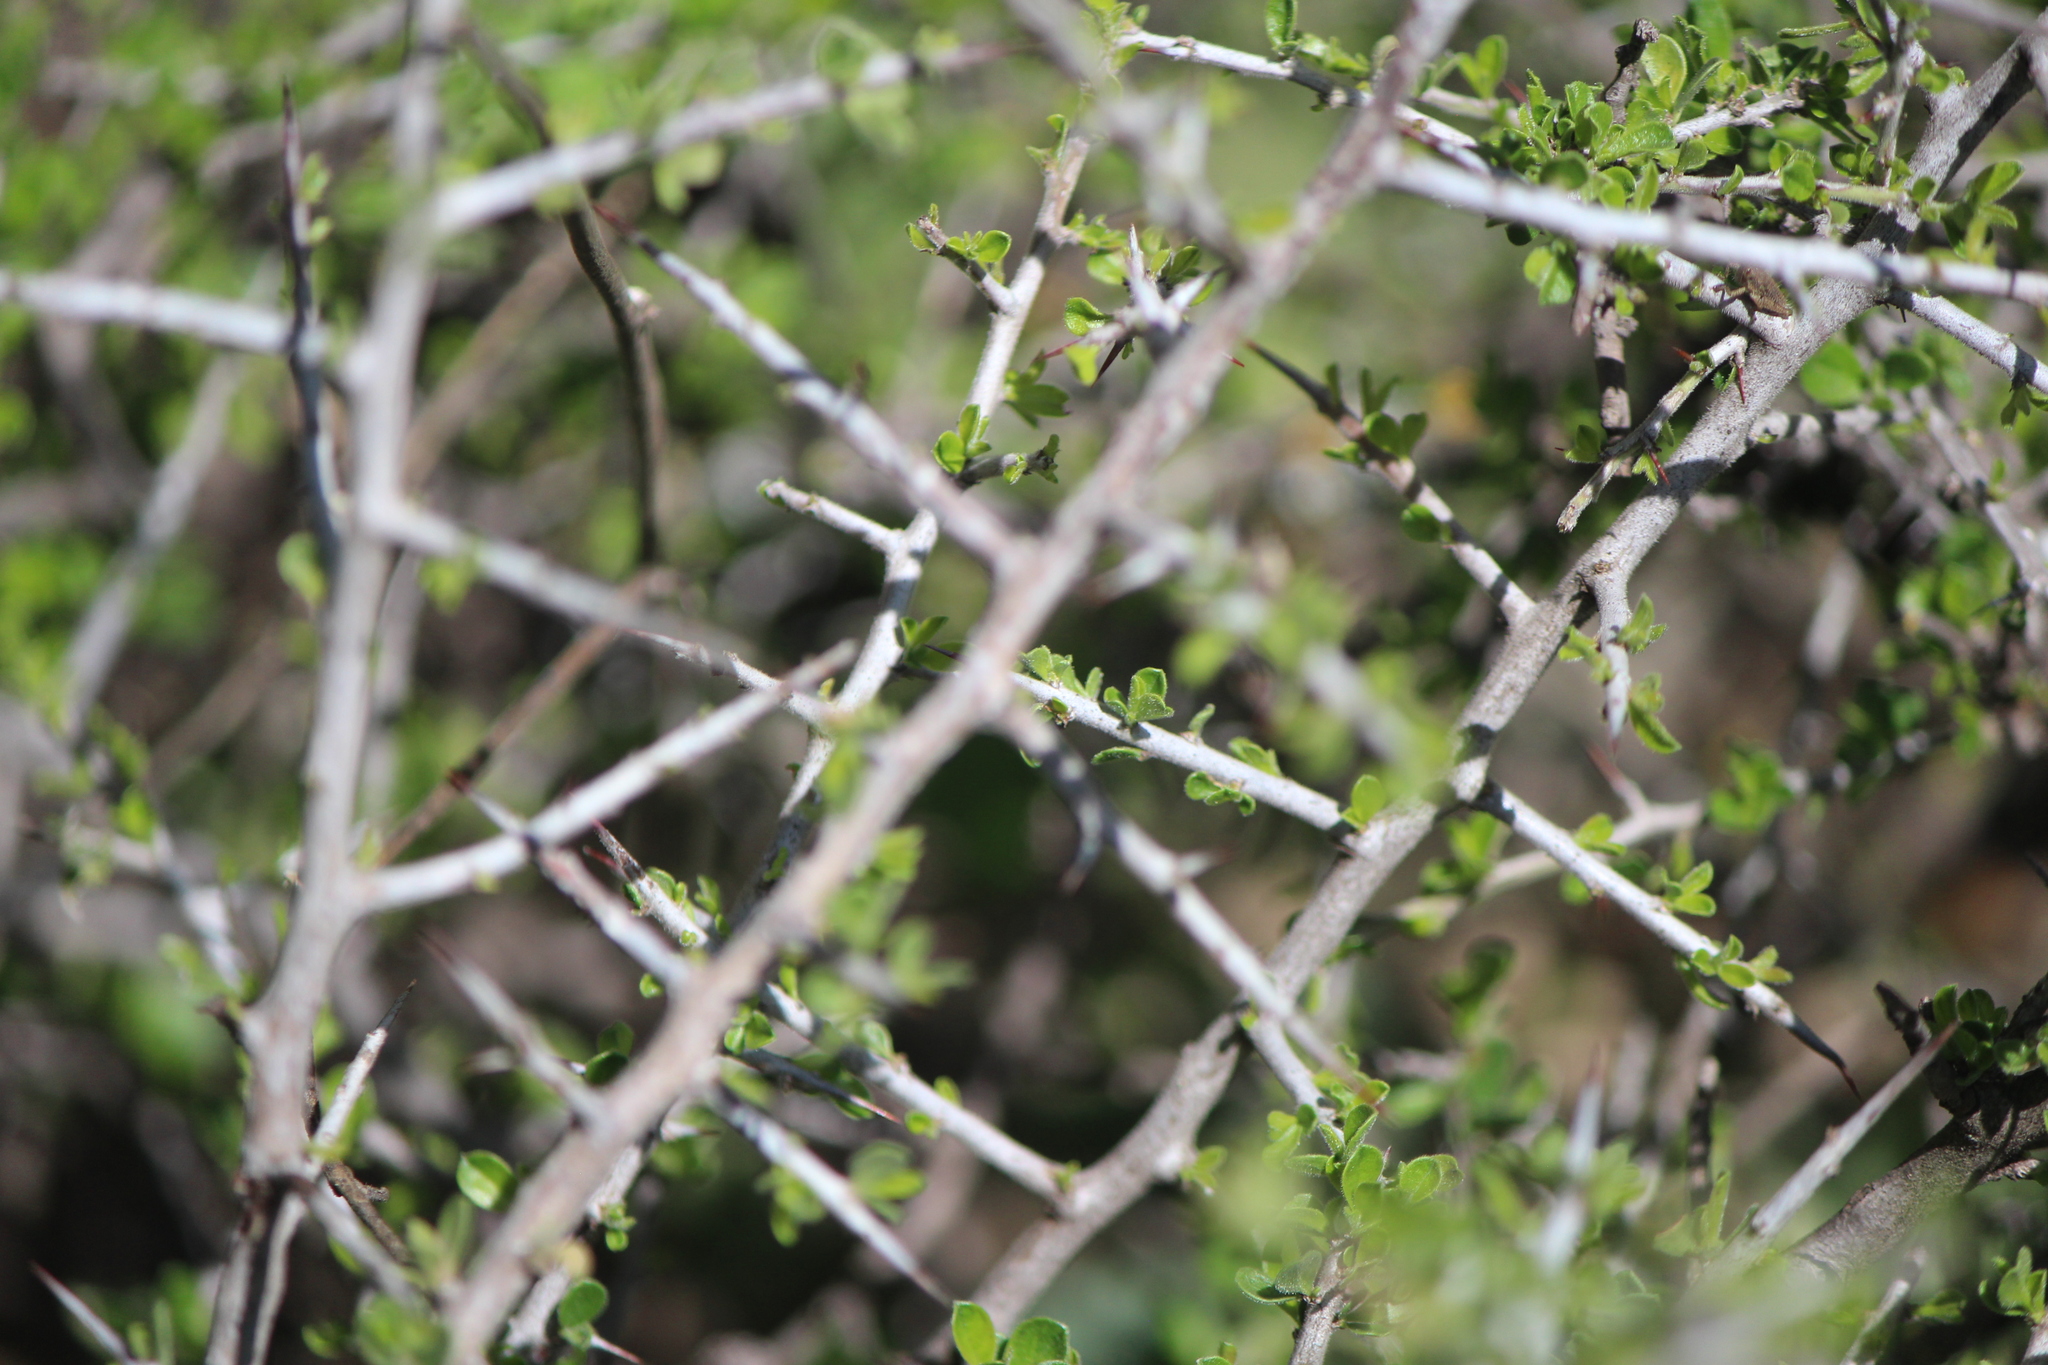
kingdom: Plantae
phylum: Tracheophyta
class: Magnoliopsida
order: Rosales
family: Rhamnaceae
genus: Sarcomphalus
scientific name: Sarcomphalus obtusifolius
